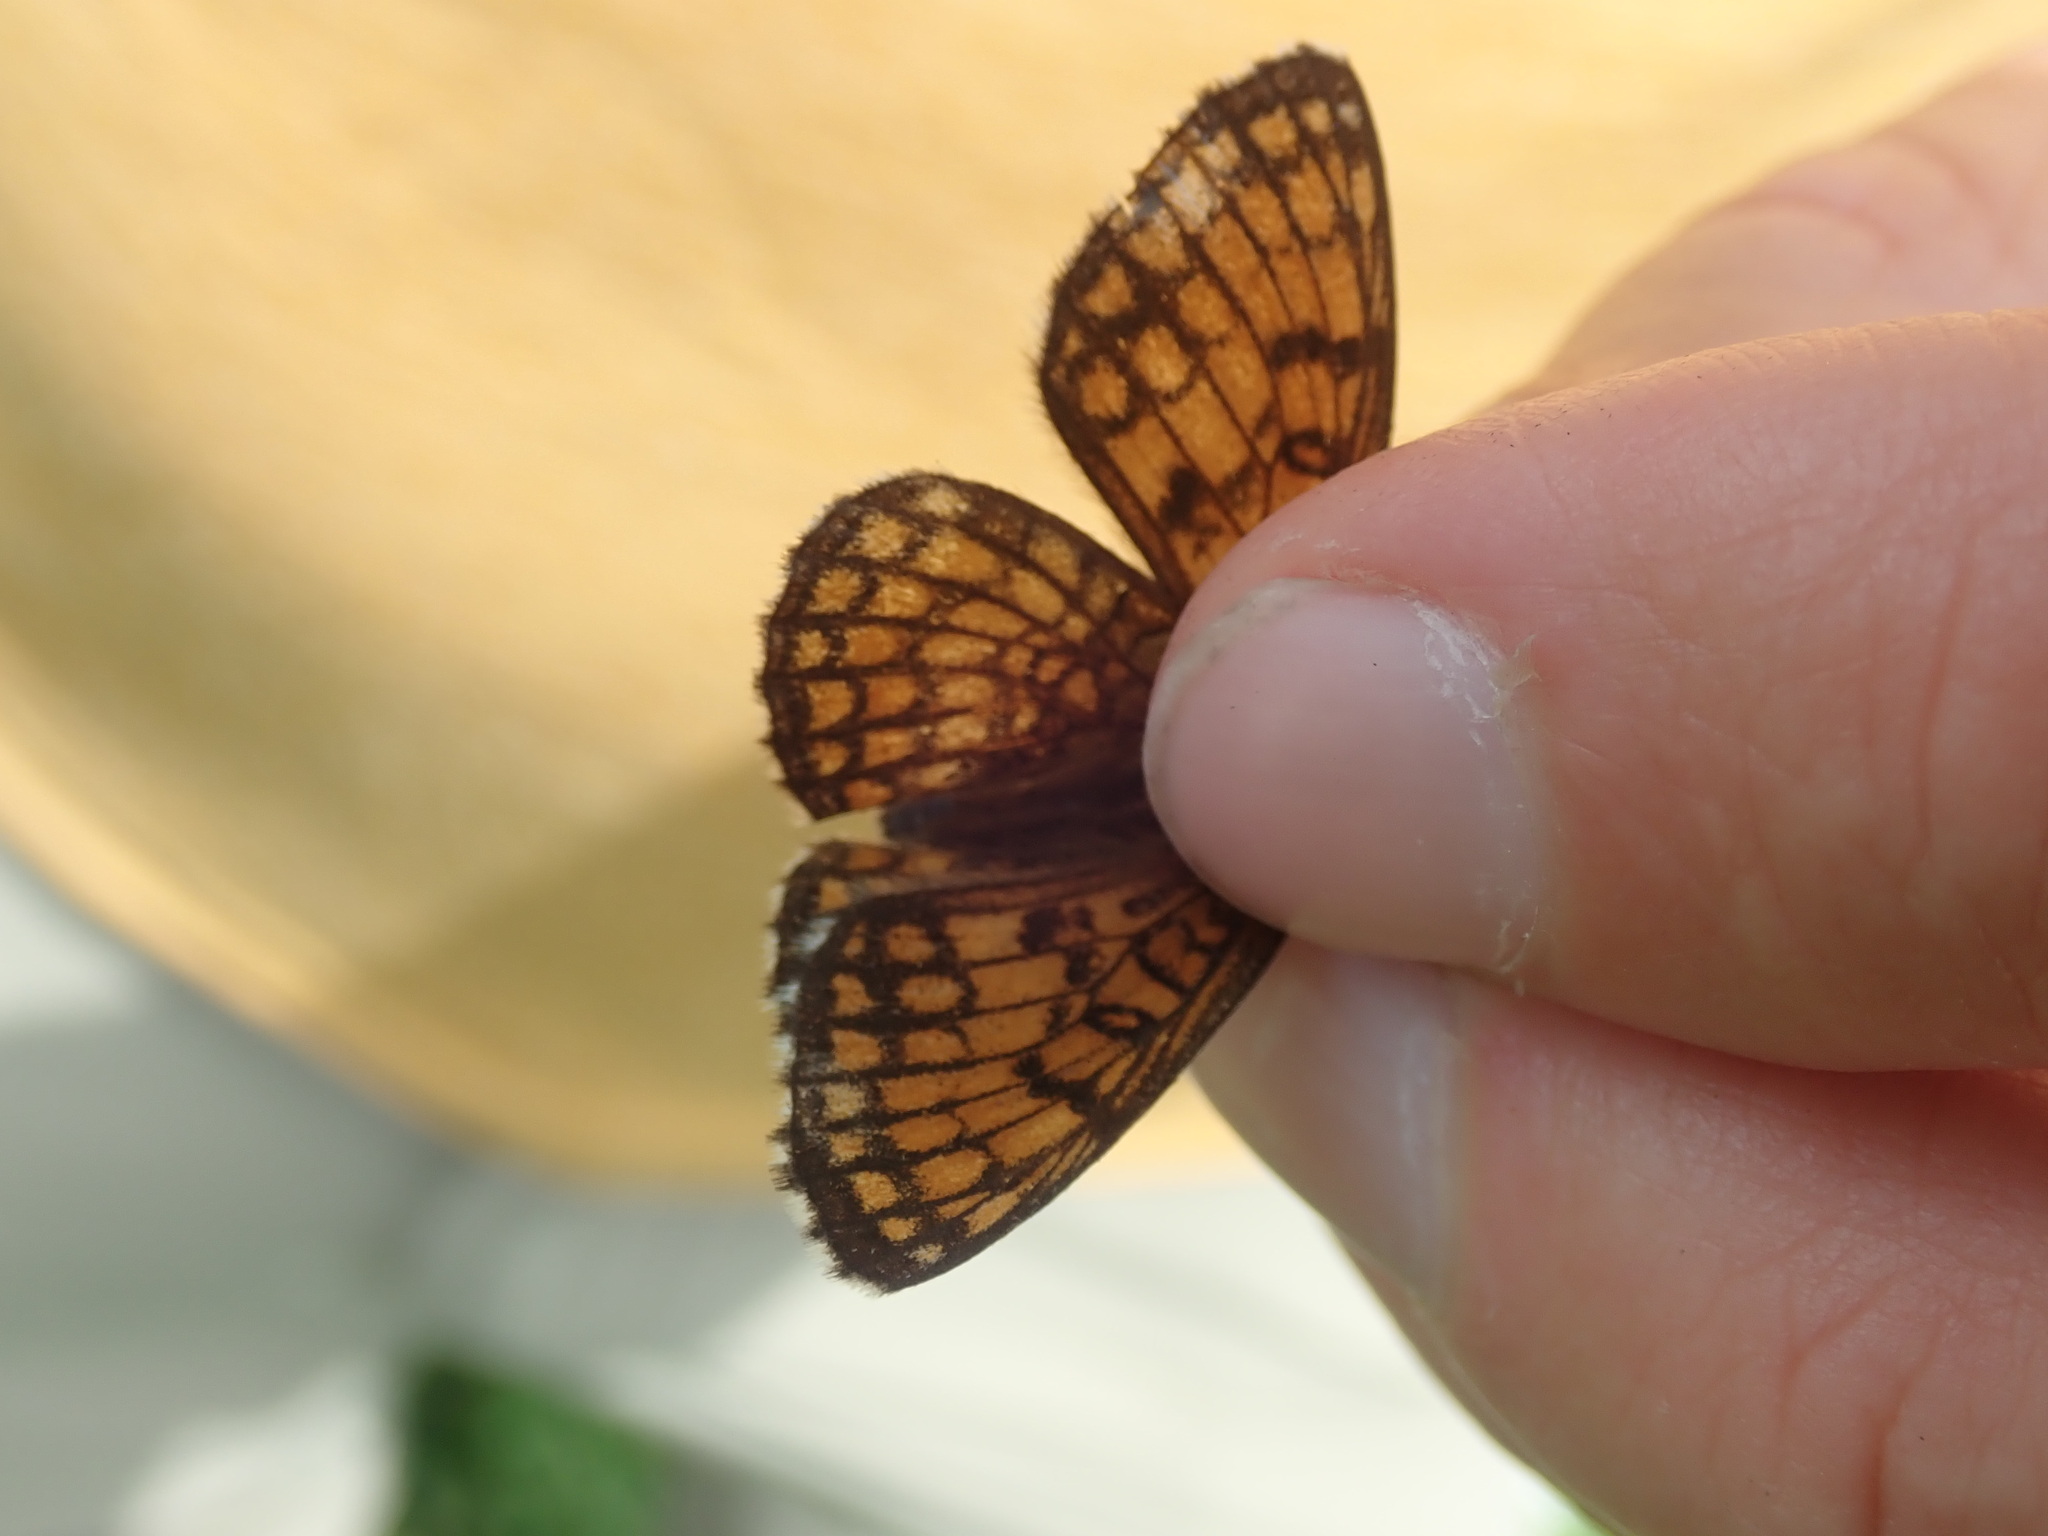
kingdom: Animalia
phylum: Arthropoda
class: Insecta
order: Lepidoptera
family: Nymphalidae
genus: Mellicta
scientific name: Mellicta parthenoides
